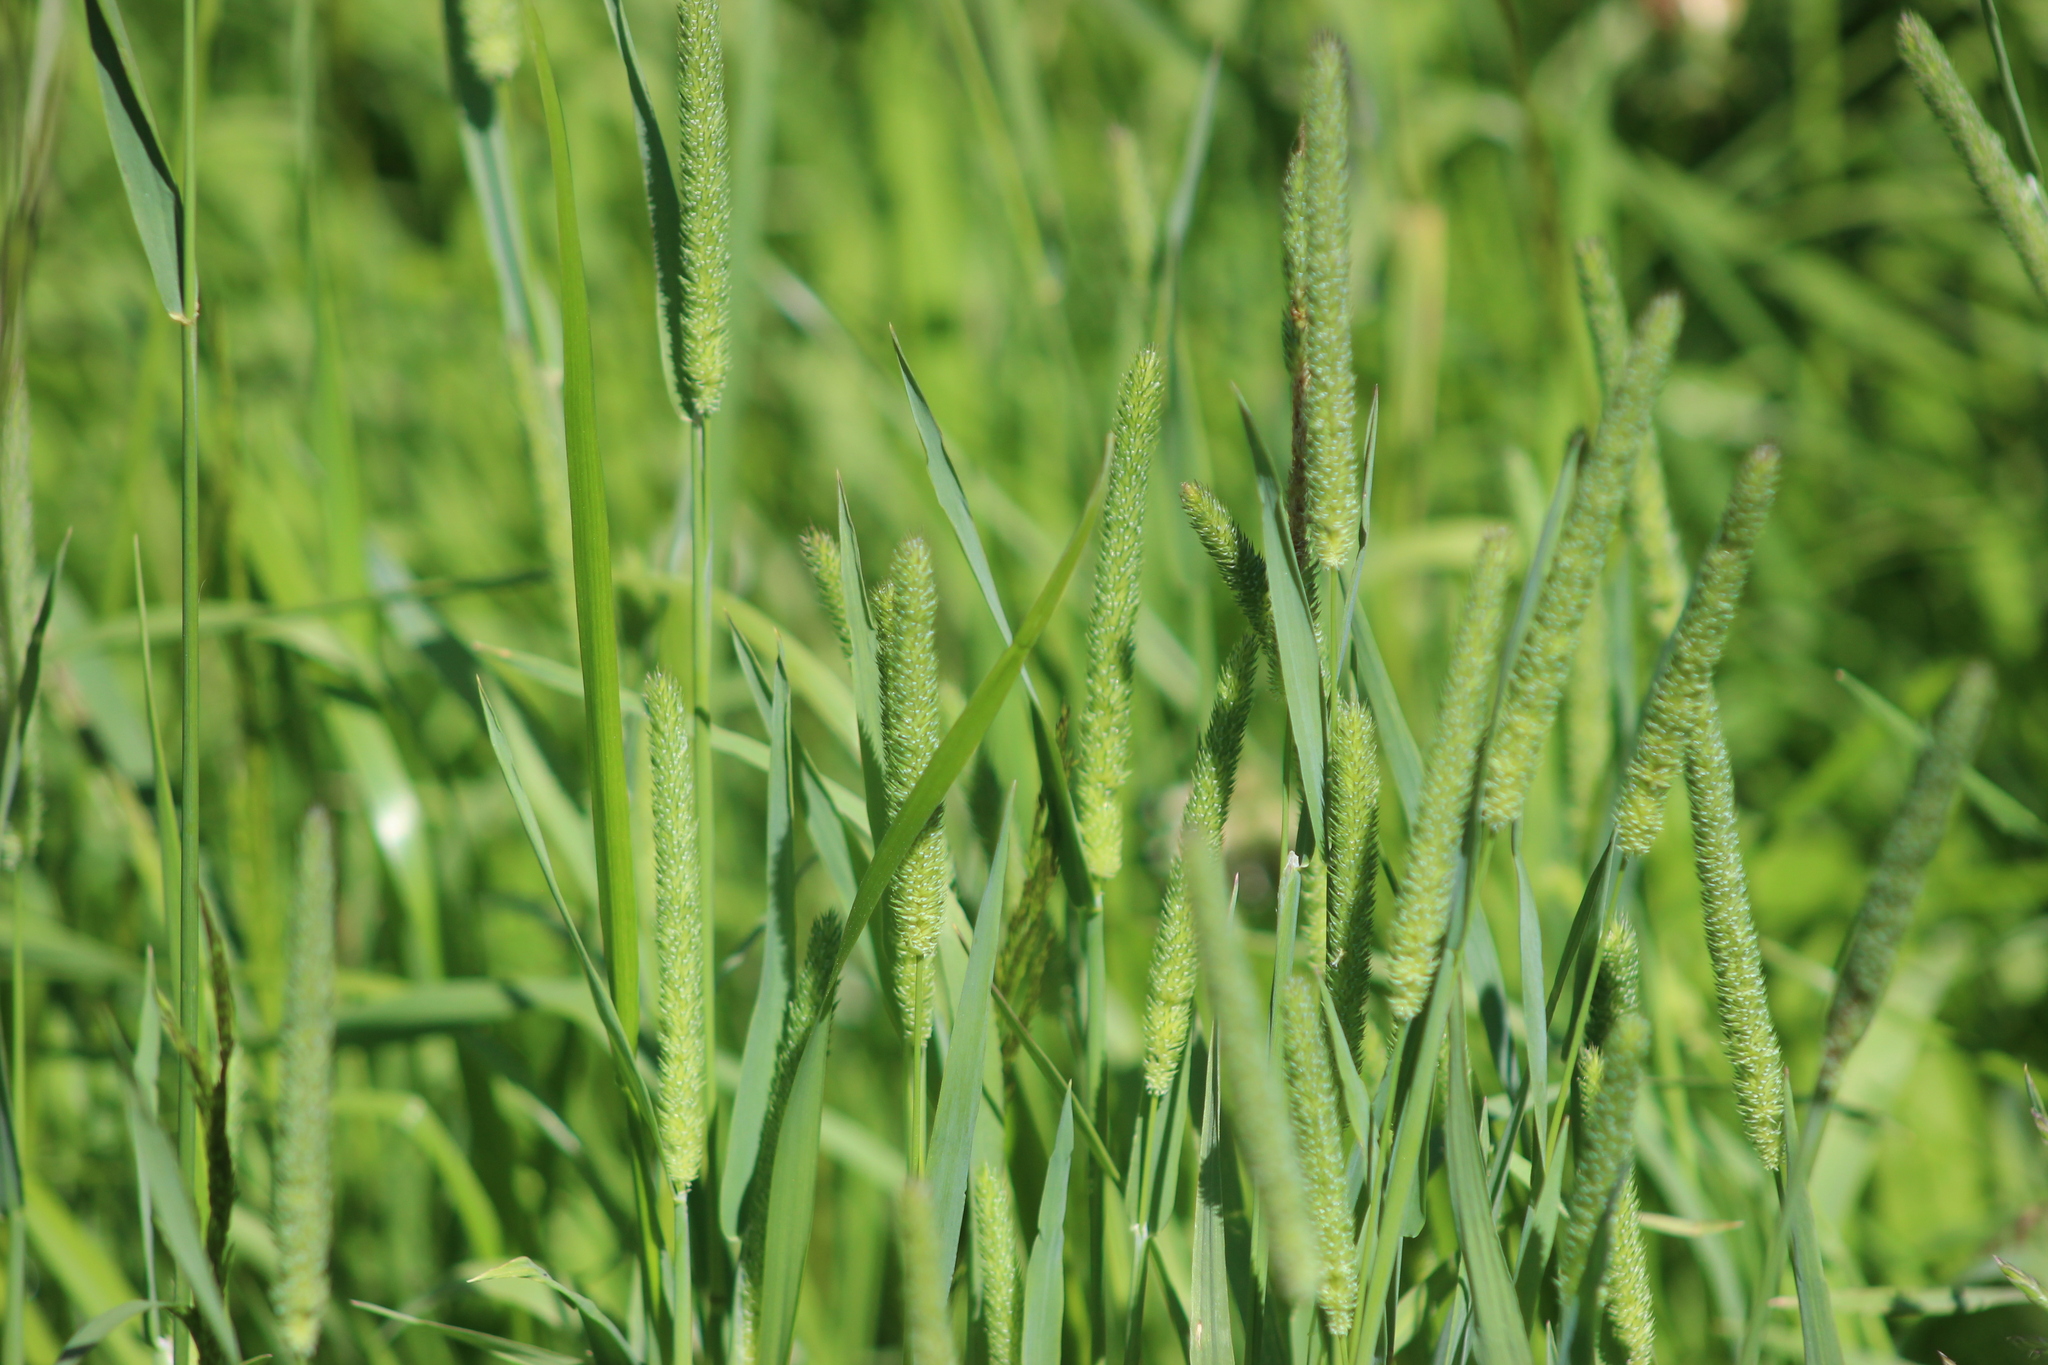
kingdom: Plantae
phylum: Tracheophyta
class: Liliopsida
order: Poales
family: Poaceae
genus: Phleum
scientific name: Phleum pratense
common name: Timothy grass
